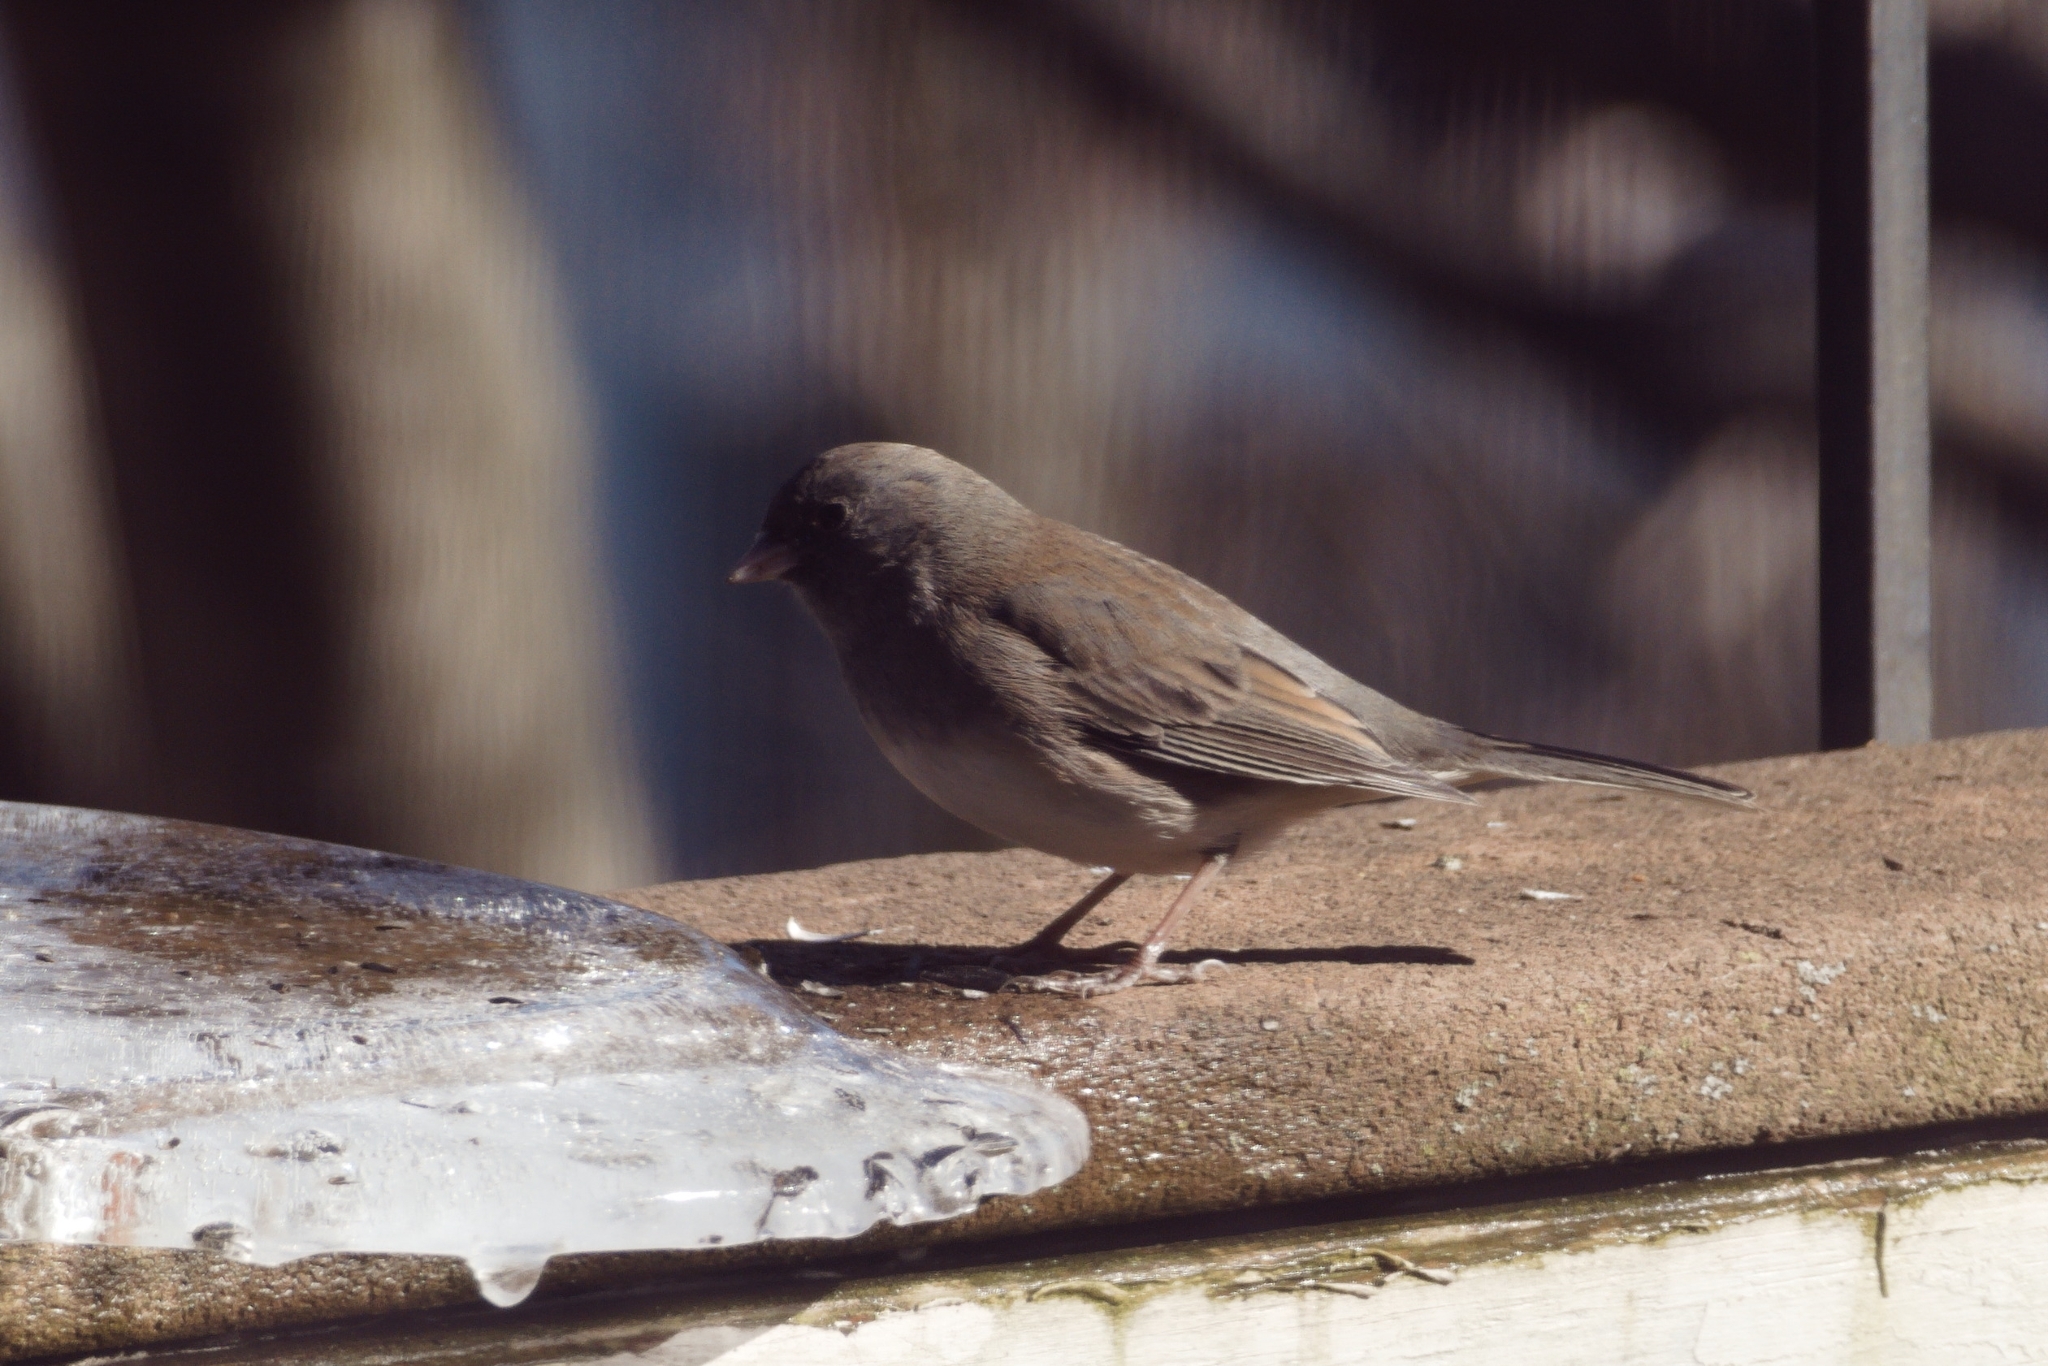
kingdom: Animalia
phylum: Chordata
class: Aves
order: Passeriformes
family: Passerellidae
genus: Junco
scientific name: Junco hyemalis
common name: Dark-eyed junco
